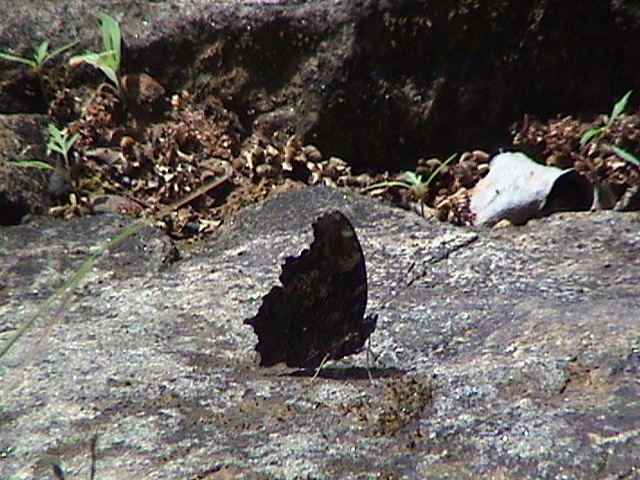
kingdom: Animalia
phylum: Arthropoda
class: Insecta
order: Lepidoptera
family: Nymphalidae
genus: Vanessa
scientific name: Vanessa Kaniska canace
